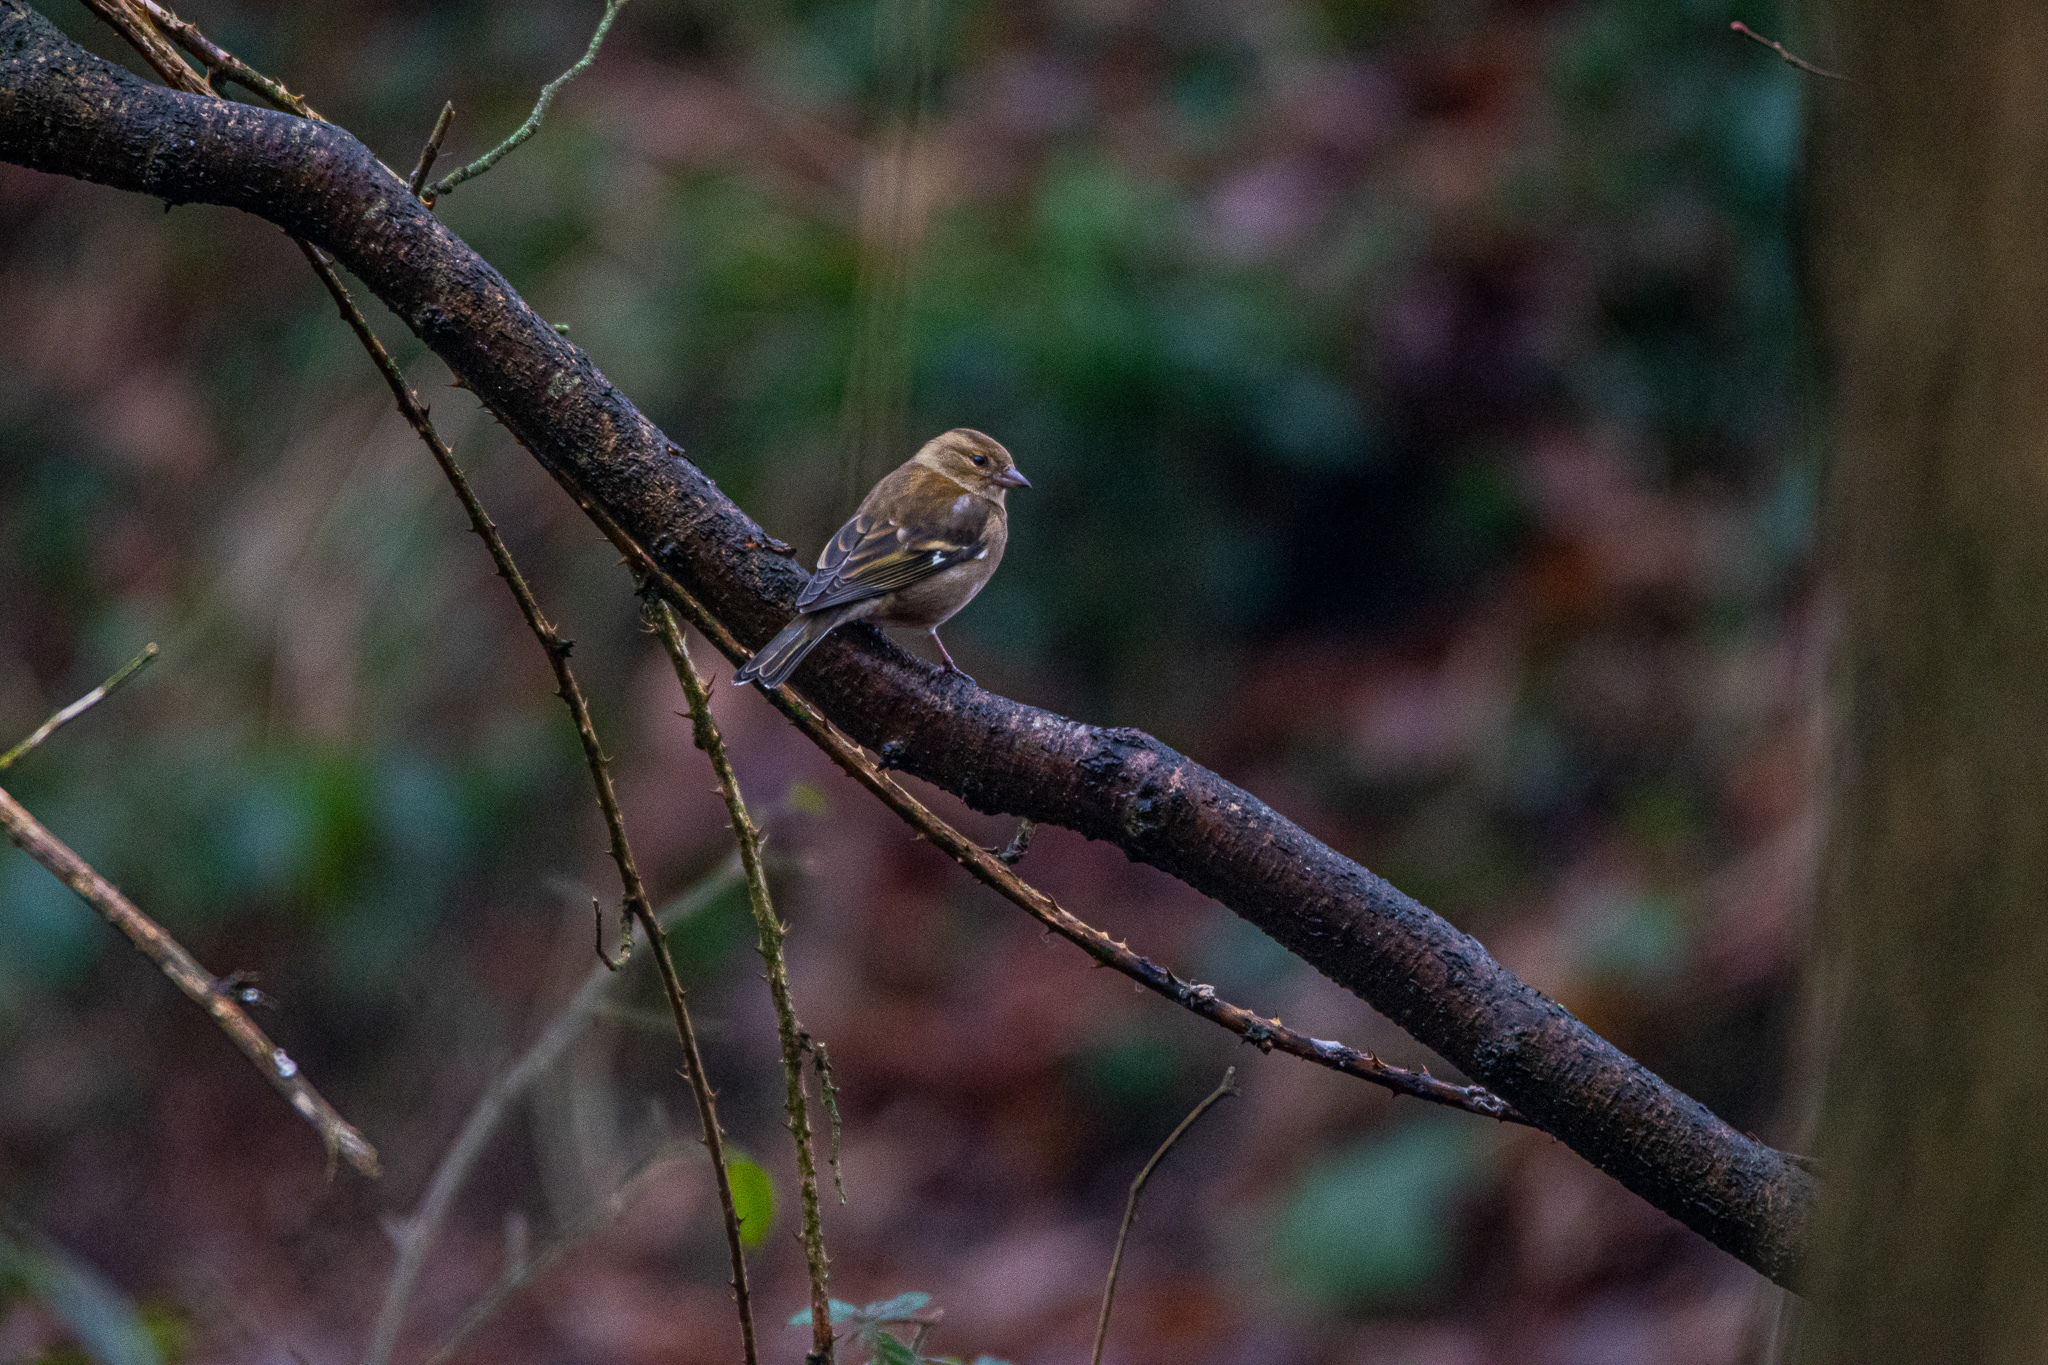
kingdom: Animalia
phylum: Chordata
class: Aves
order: Passeriformes
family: Fringillidae
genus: Fringilla
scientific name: Fringilla coelebs
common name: Common chaffinch
